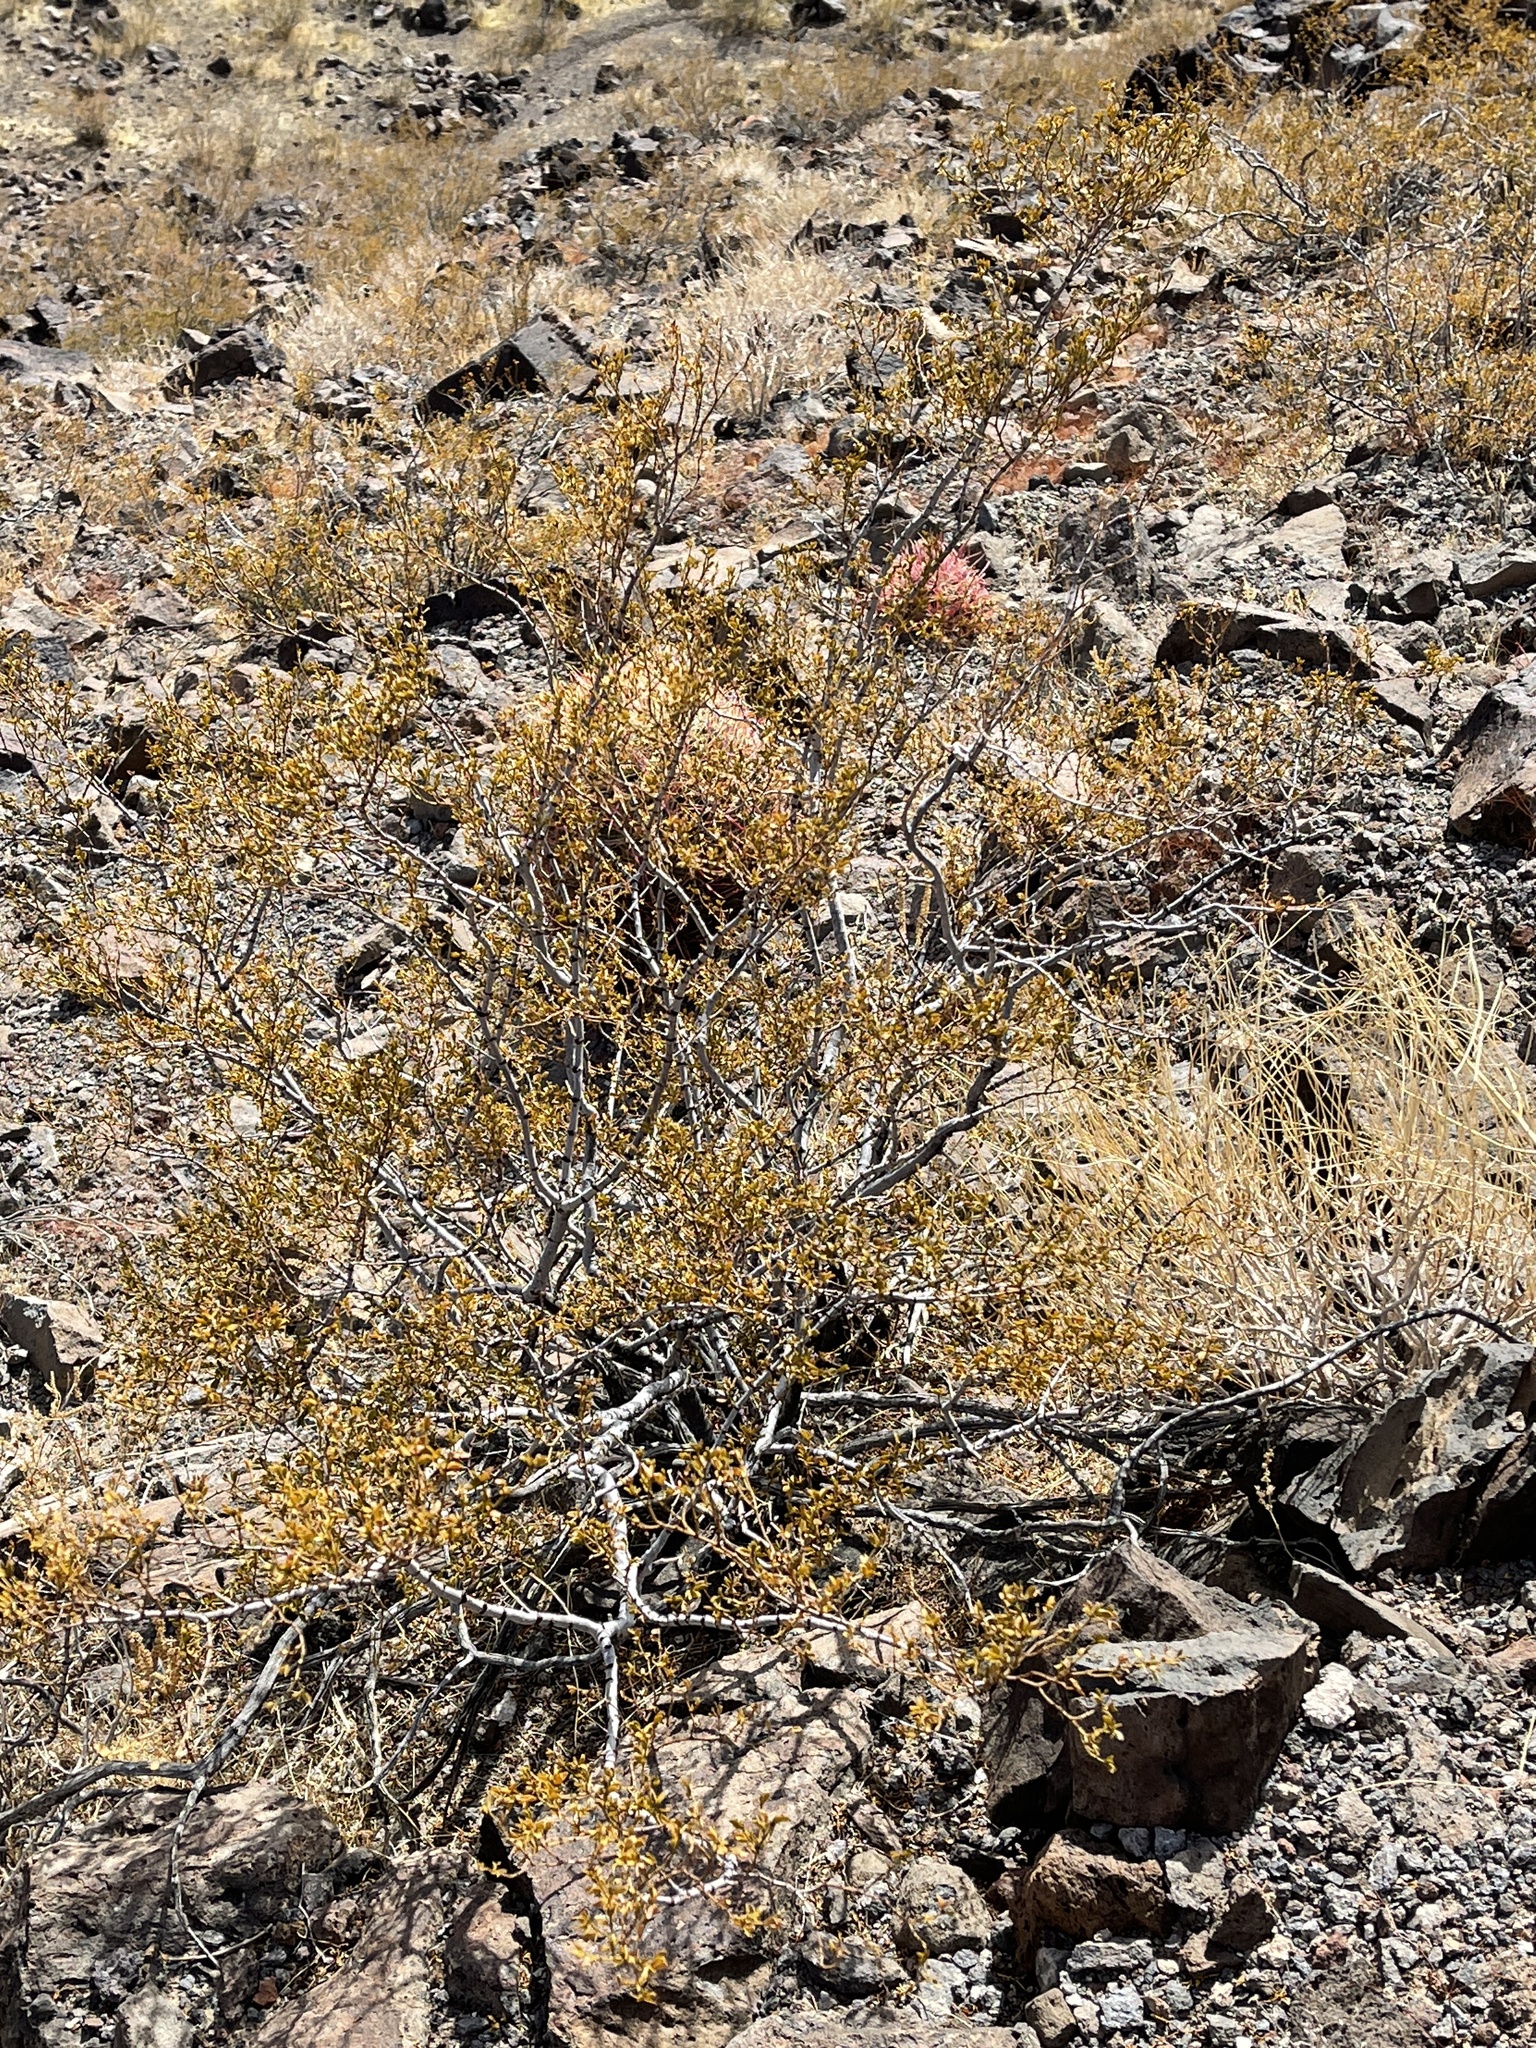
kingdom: Plantae
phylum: Tracheophyta
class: Magnoliopsida
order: Zygophyllales
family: Zygophyllaceae
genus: Larrea
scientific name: Larrea tridentata
